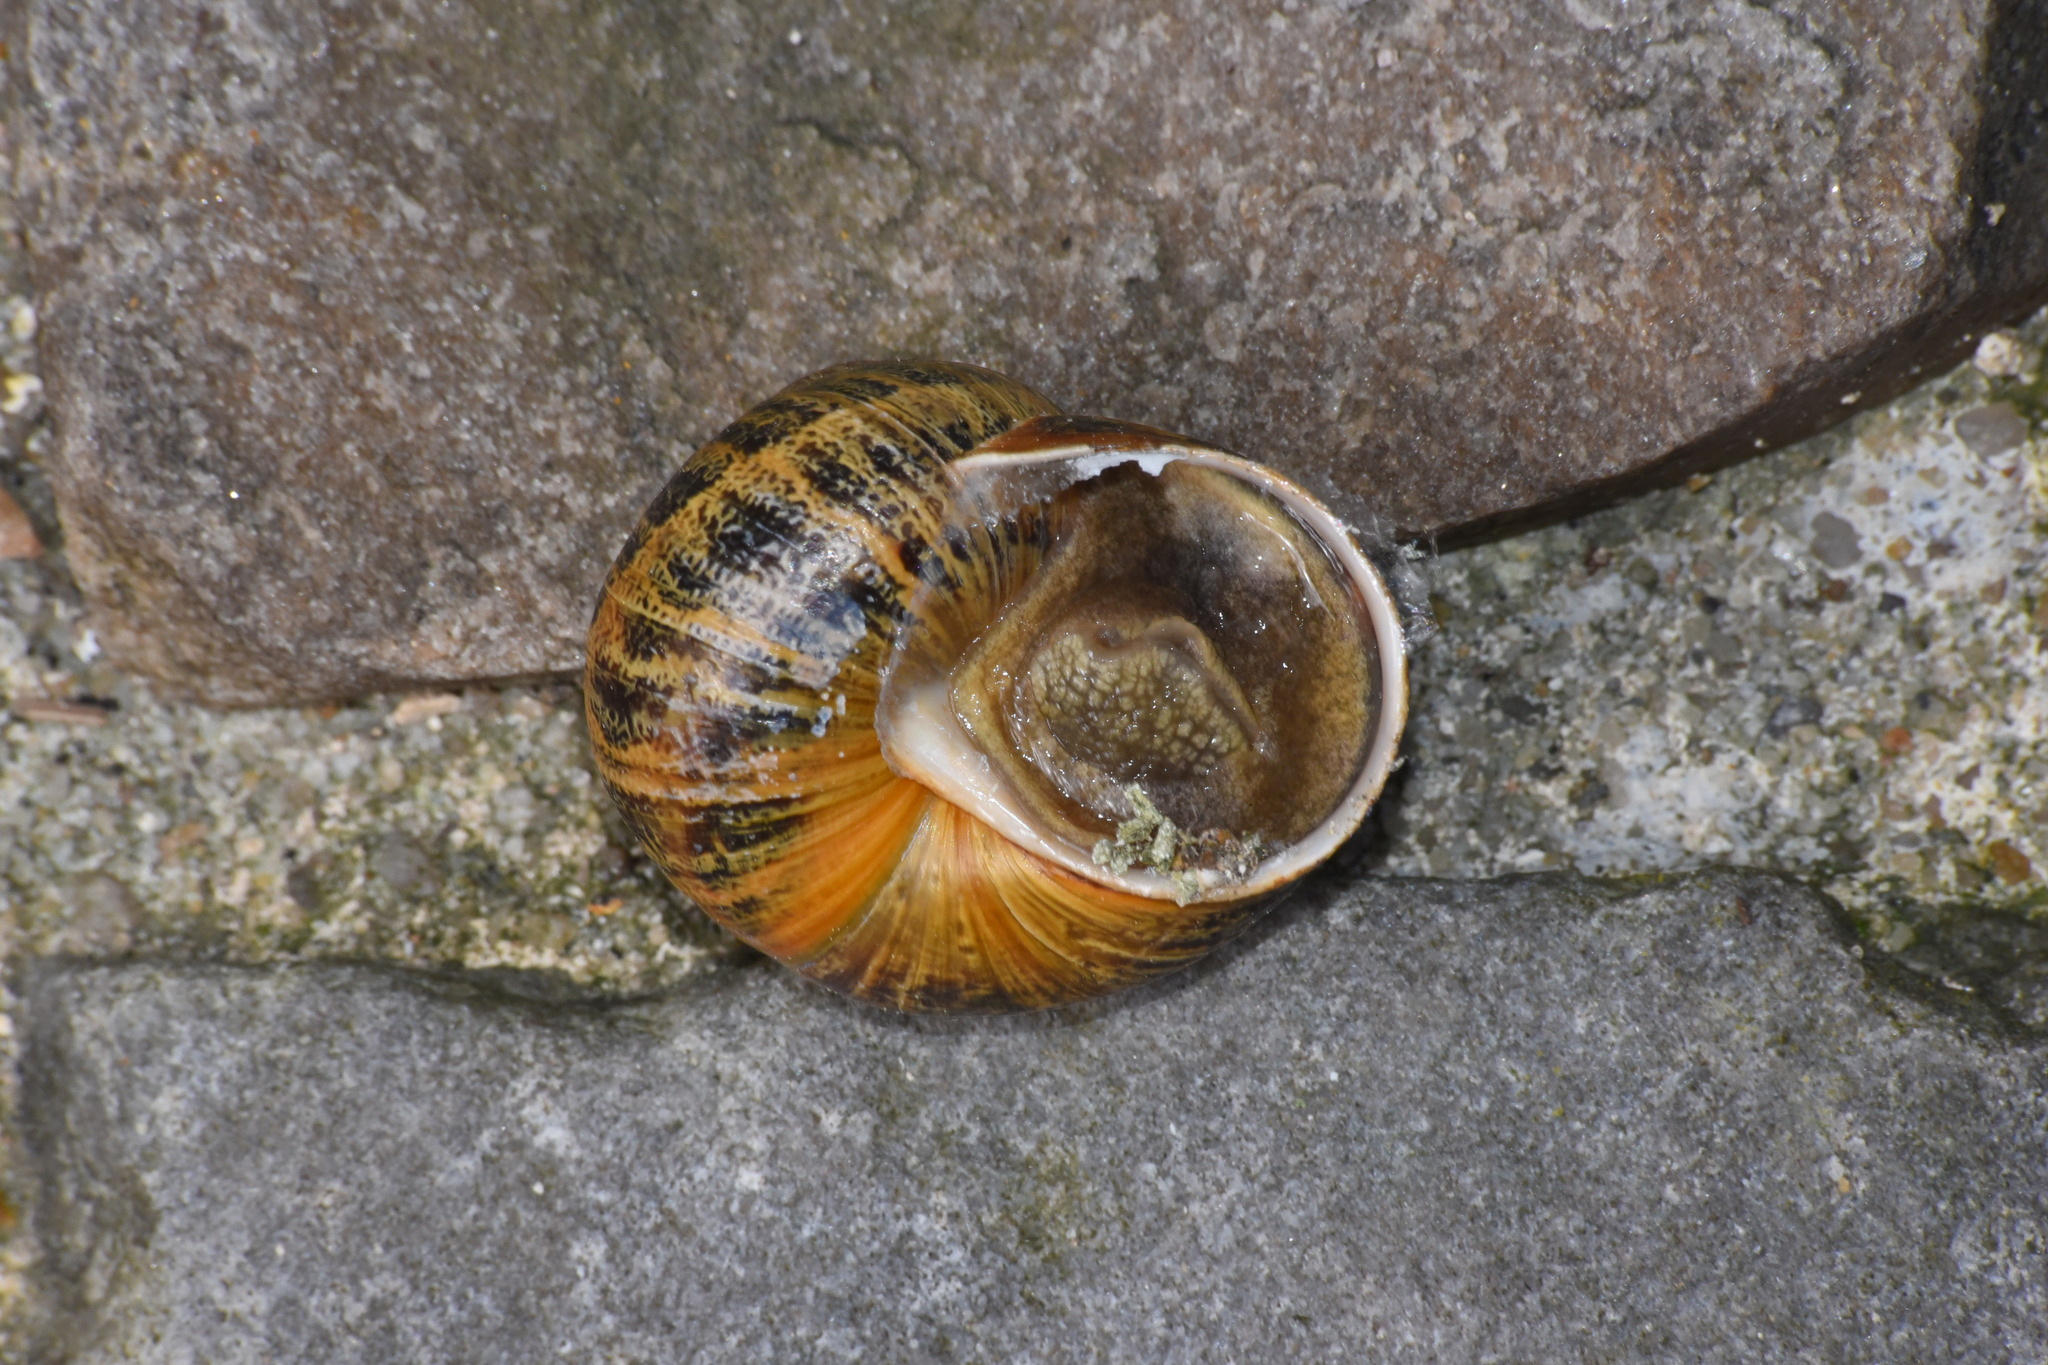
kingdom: Animalia
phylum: Mollusca
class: Gastropoda
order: Stylommatophora
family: Helicidae
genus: Cornu
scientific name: Cornu aspersum
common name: Brown garden snail
